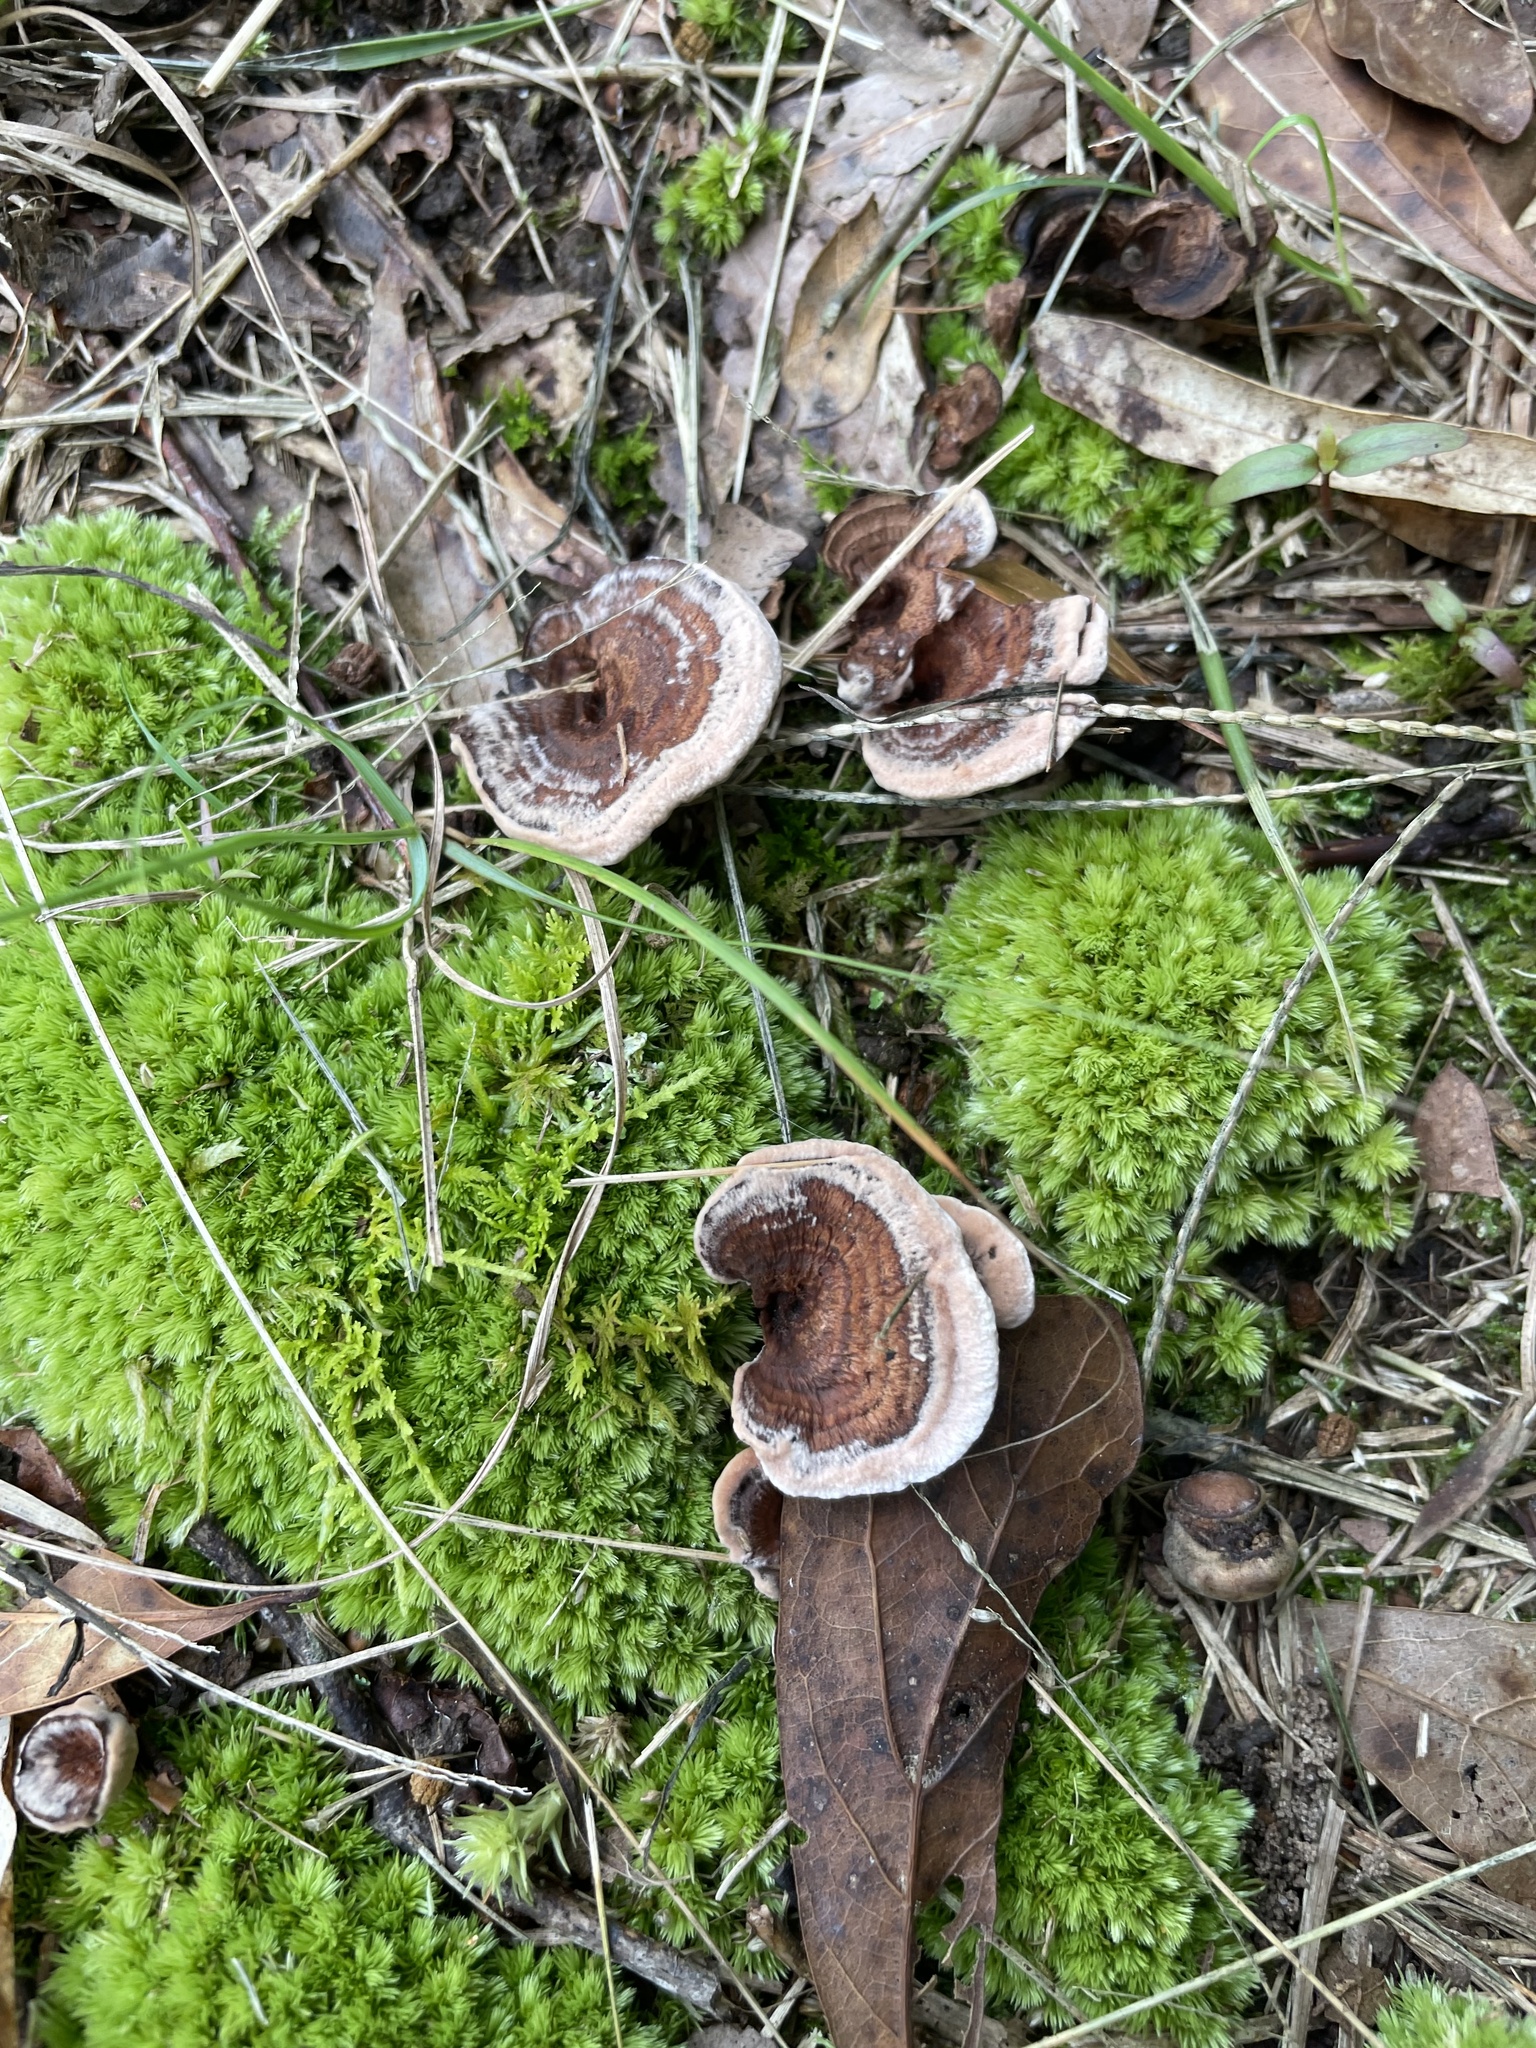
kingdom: Fungi
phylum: Basidiomycota
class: Agaricomycetes
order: Thelephorales
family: Bankeraceae
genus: Hydnellum
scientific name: Hydnellum concrescens
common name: Zoned tooth
